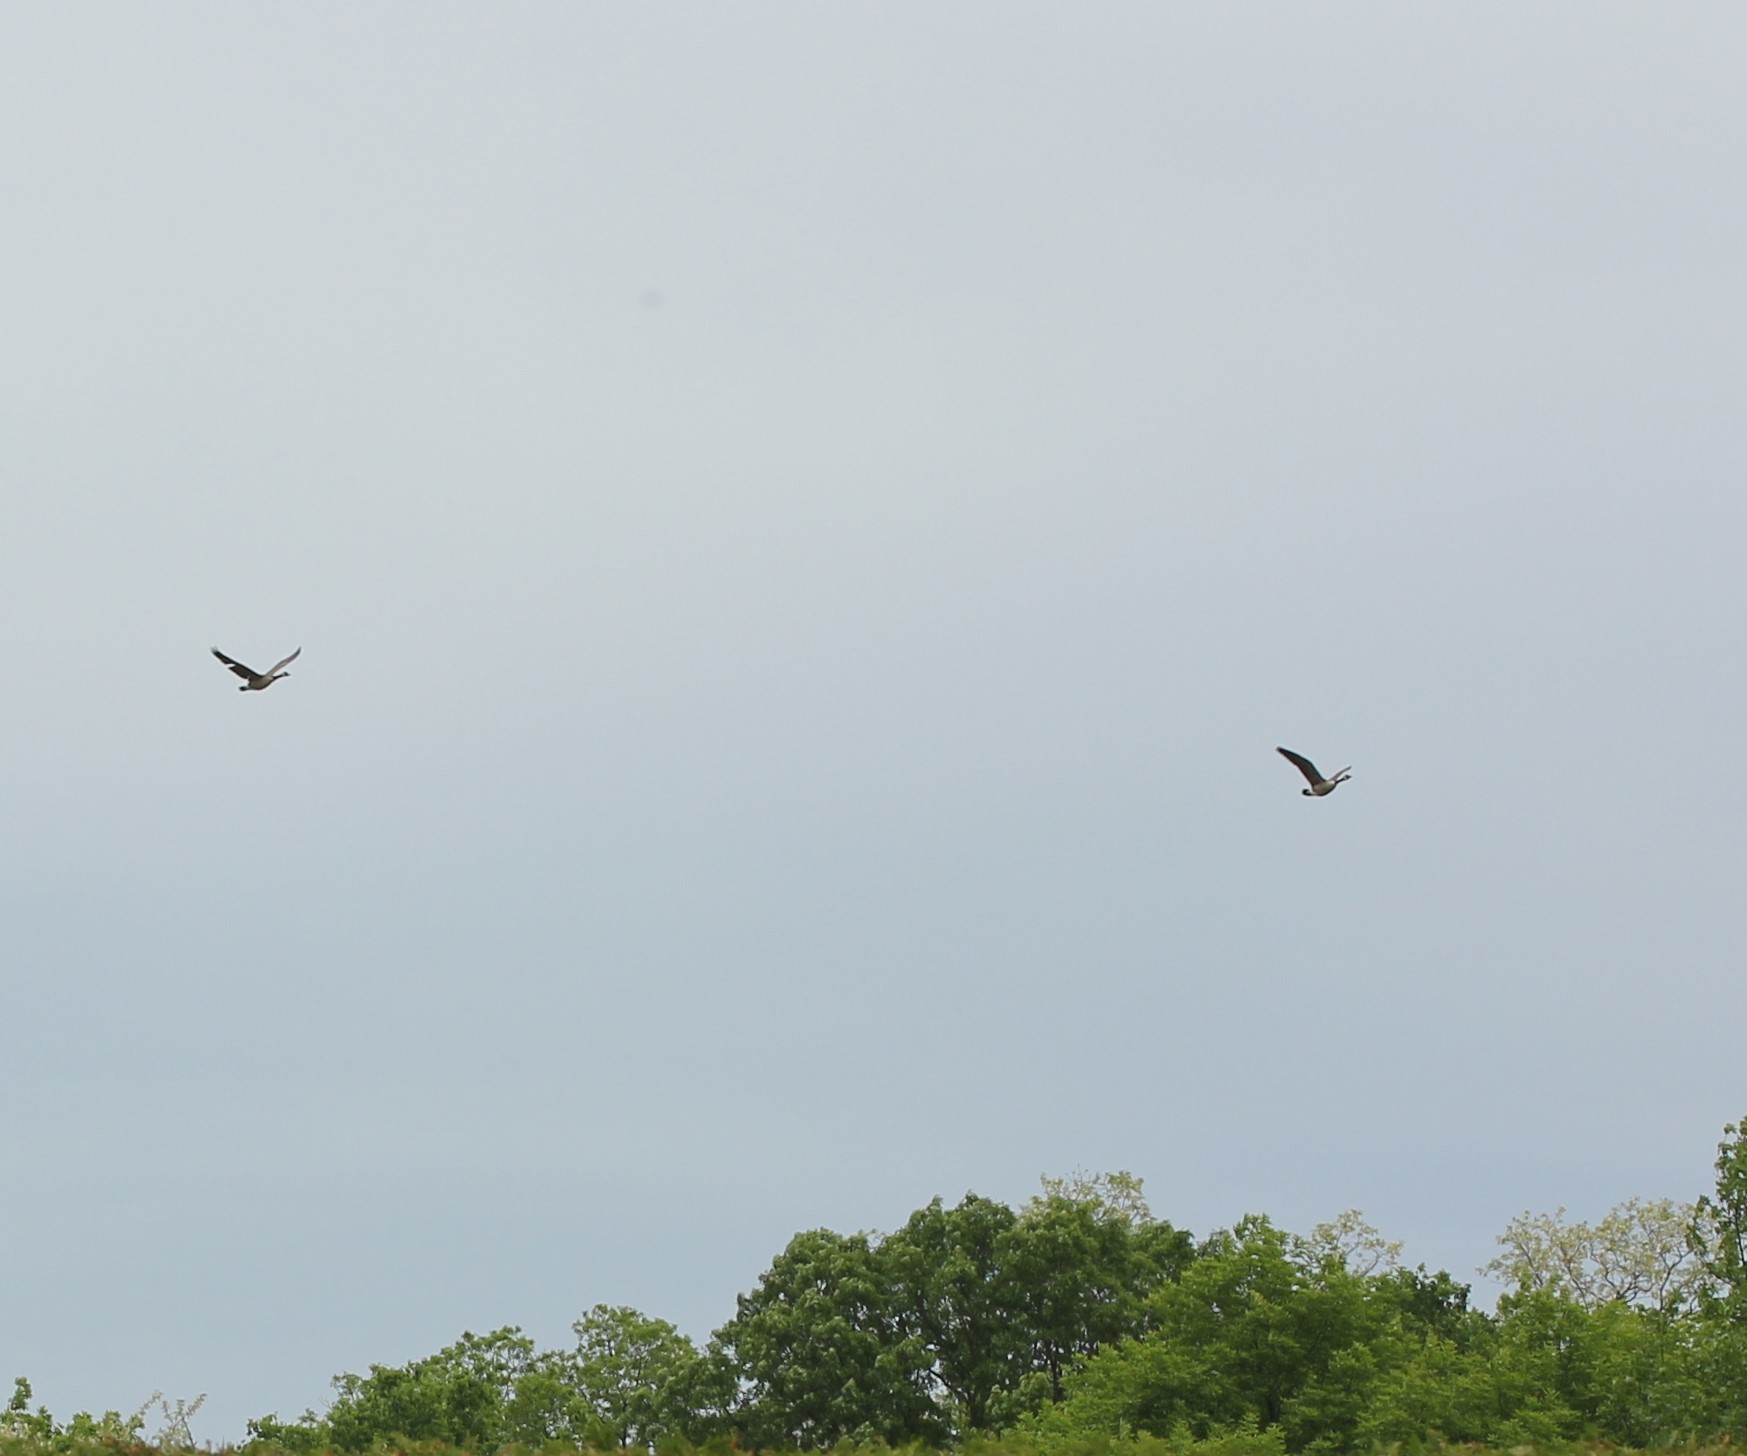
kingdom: Animalia
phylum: Chordata
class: Aves
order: Anseriformes
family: Anatidae
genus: Branta
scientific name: Branta canadensis
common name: Canada goose
